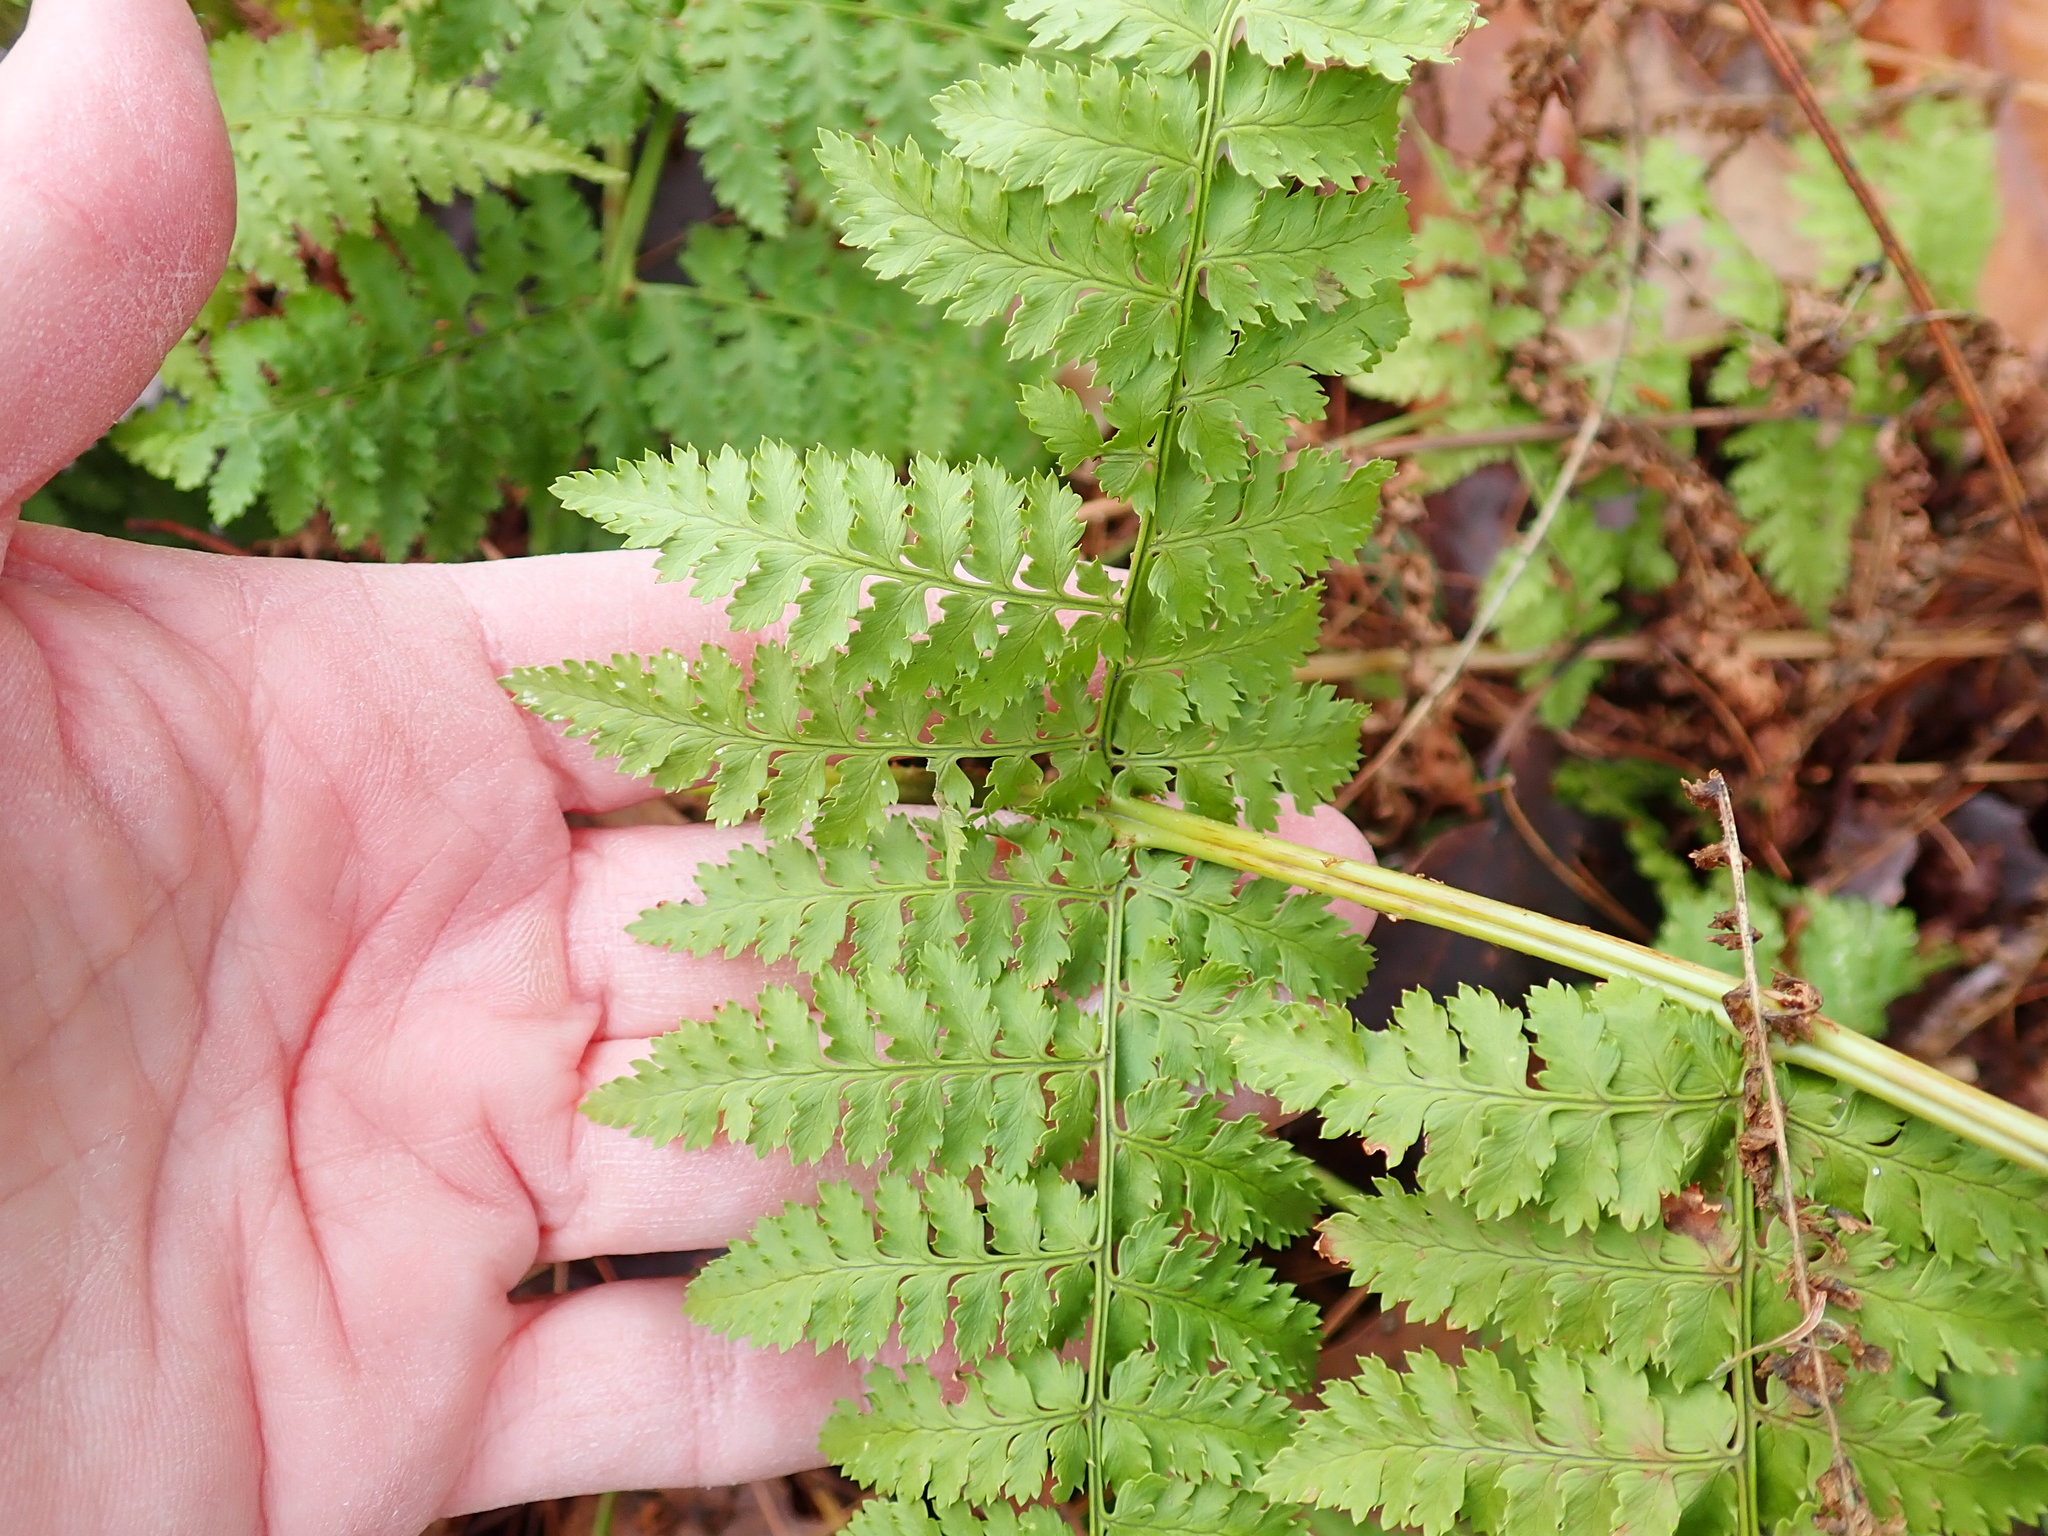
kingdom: Plantae
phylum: Tracheophyta
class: Polypodiopsida
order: Polypodiales
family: Dryopteridaceae
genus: Dryopteris
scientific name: Dryopteris intermedia
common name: Evergreen wood fern
